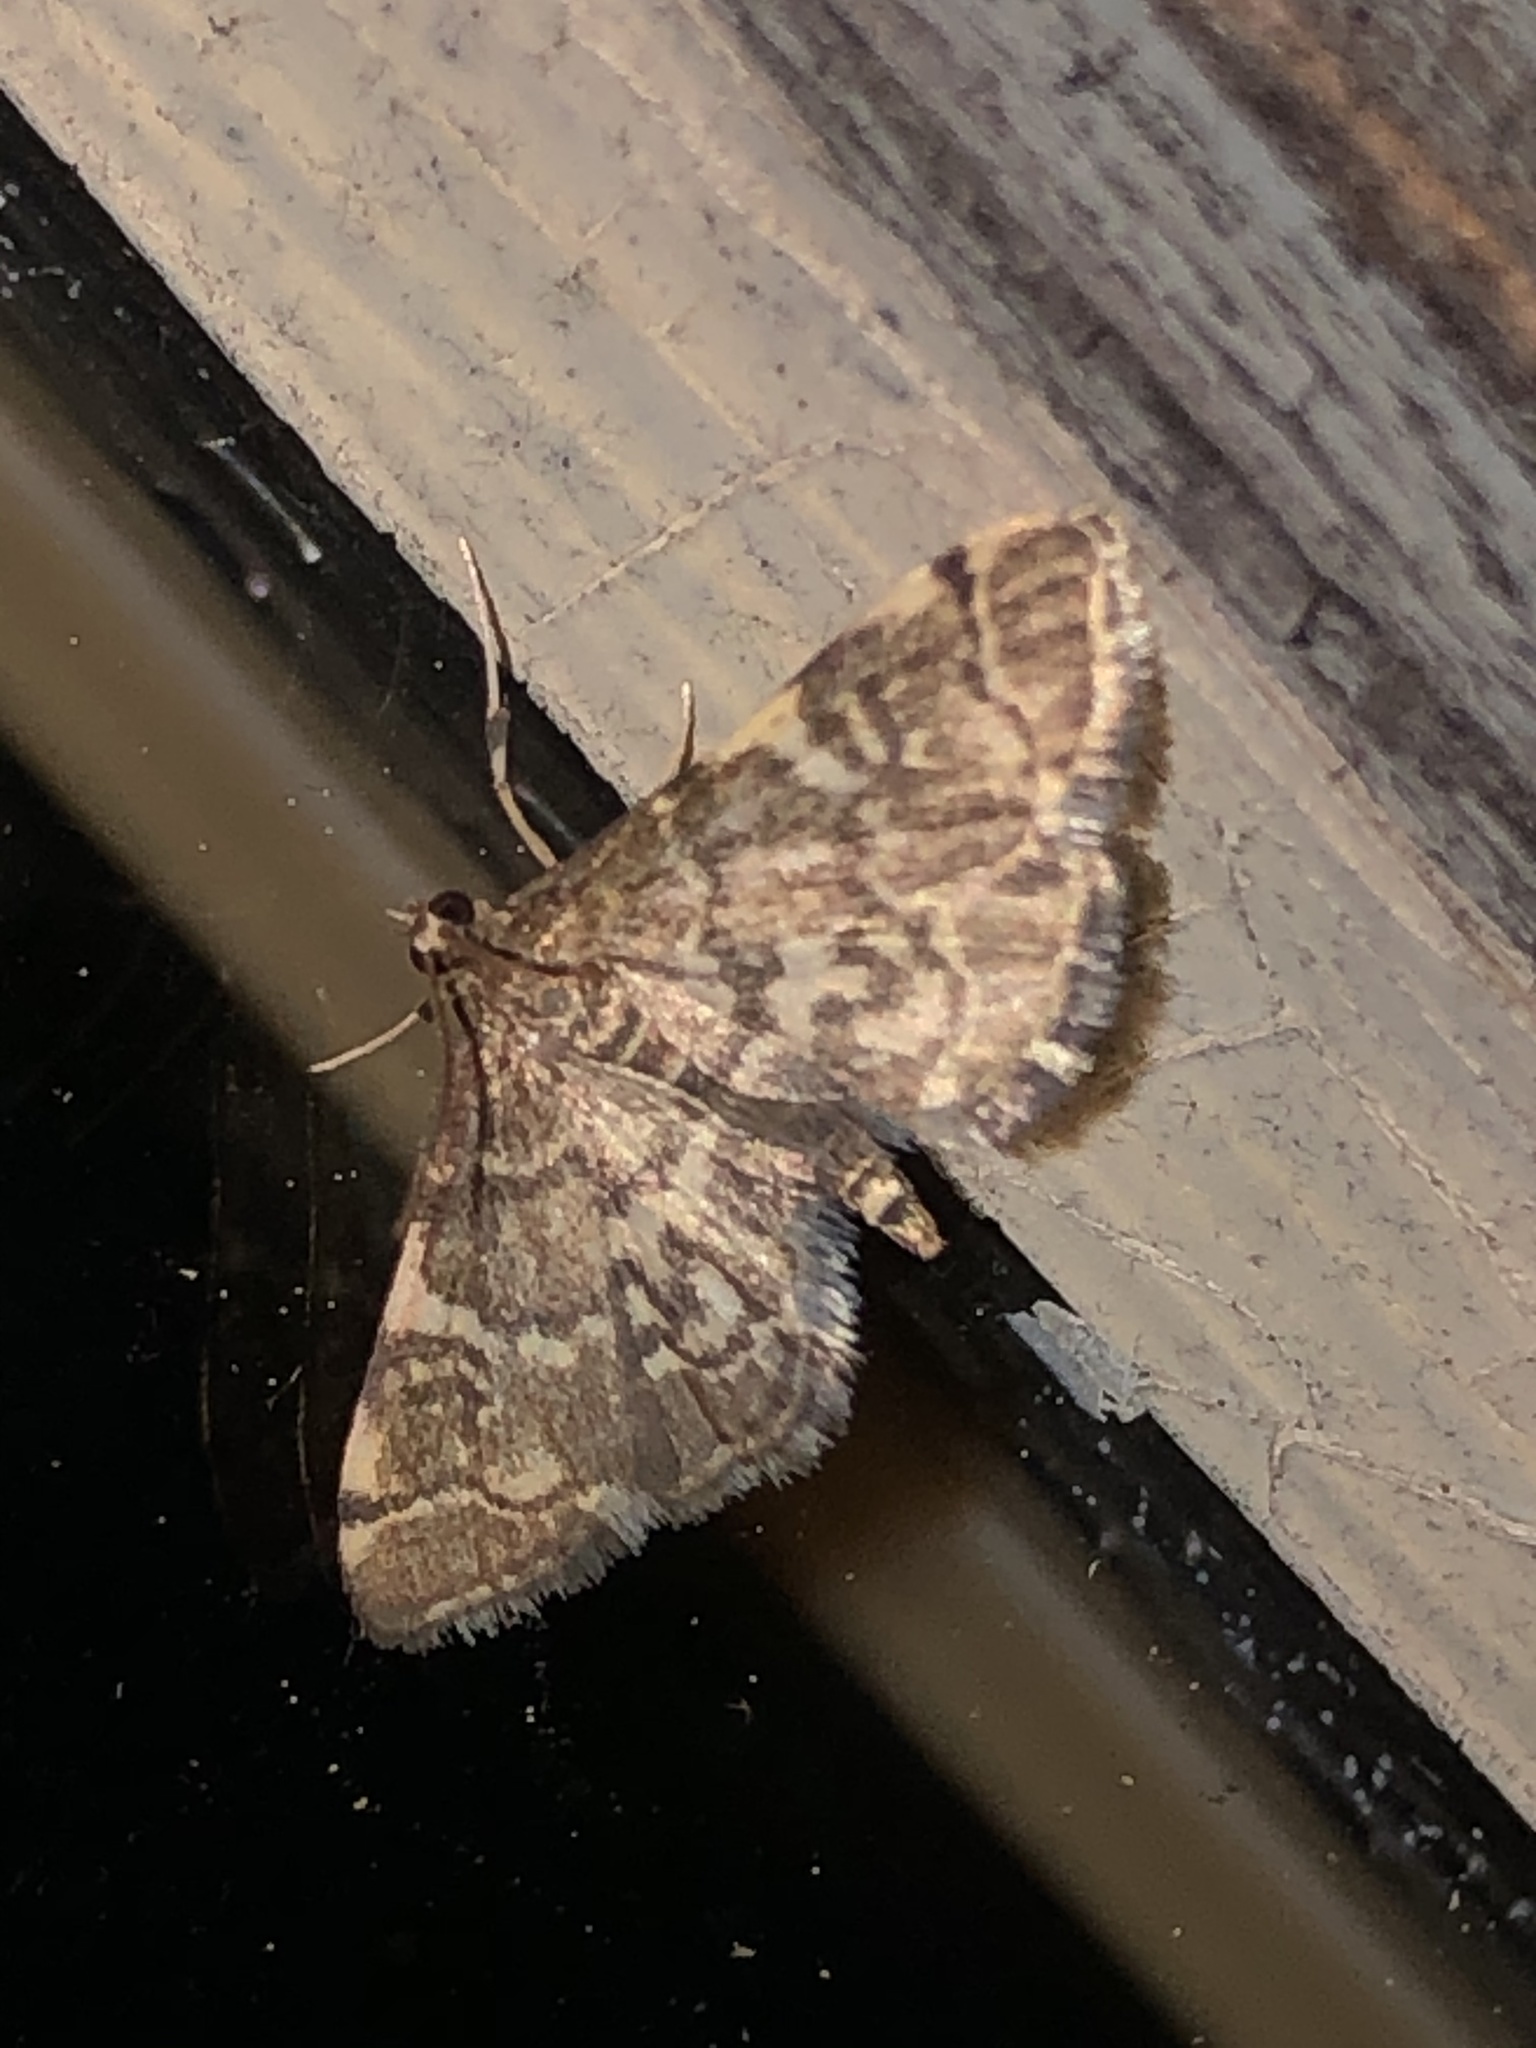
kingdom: Animalia
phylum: Arthropoda
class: Insecta
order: Lepidoptera
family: Crambidae
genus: Anageshna
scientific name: Anageshna primordialis
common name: Yellow-spotted webworm moth
